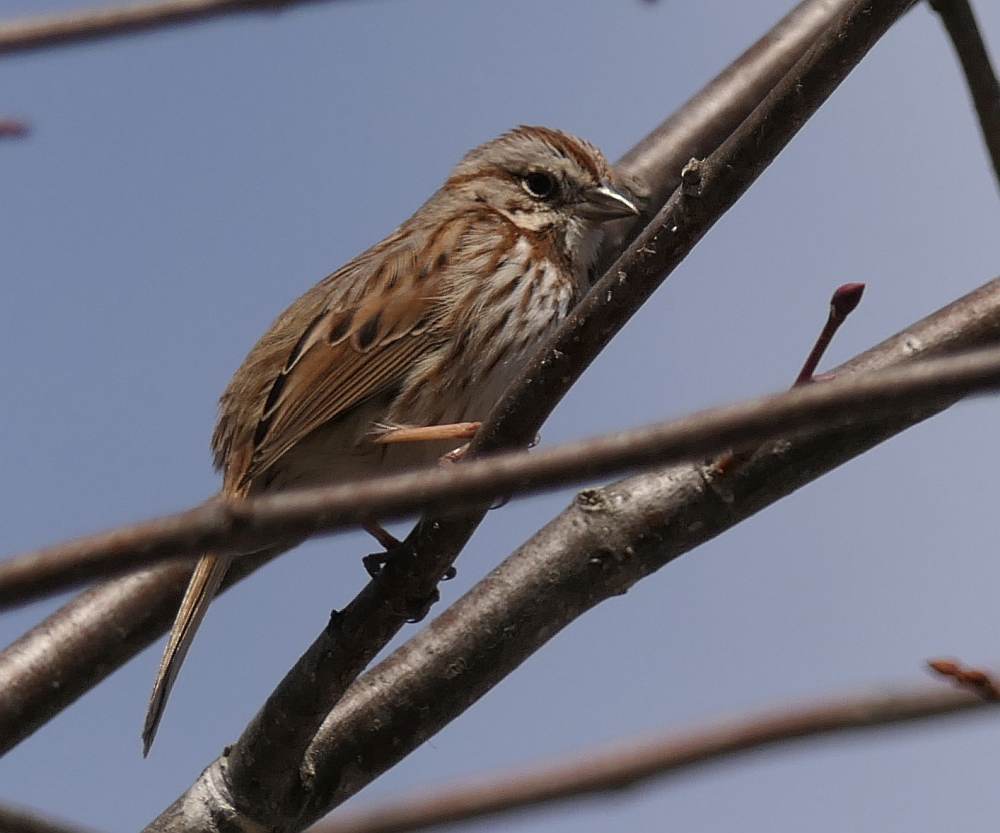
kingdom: Animalia
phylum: Chordata
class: Aves
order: Passeriformes
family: Passerellidae
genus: Melospiza
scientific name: Melospiza melodia
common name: Song sparrow
